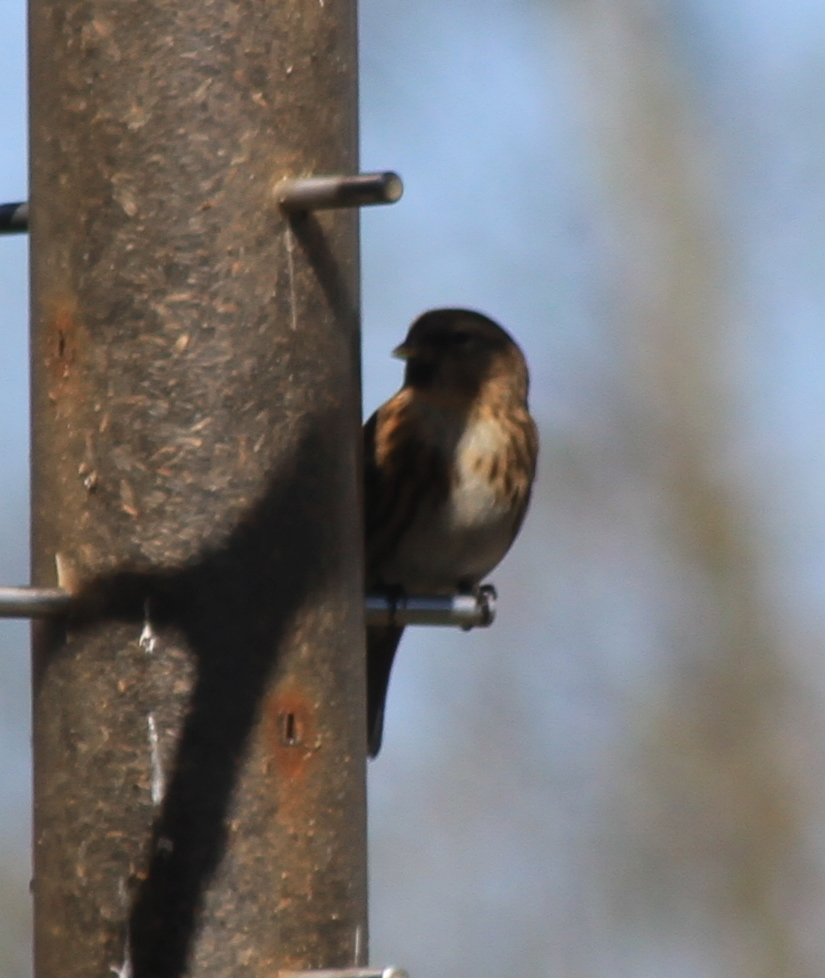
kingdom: Animalia
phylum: Chordata
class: Aves
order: Passeriformes
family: Fringillidae
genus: Acanthis
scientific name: Acanthis flammea
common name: Common redpoll
